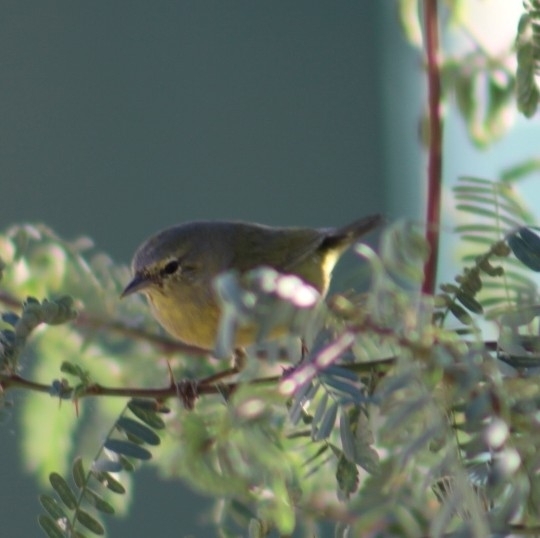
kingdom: Animalia
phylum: Chordata
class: Aves
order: Passeriformes
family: Parulidae
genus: Leiothlypis
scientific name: Leiothlypis celata
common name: Orange-crowned warbler
